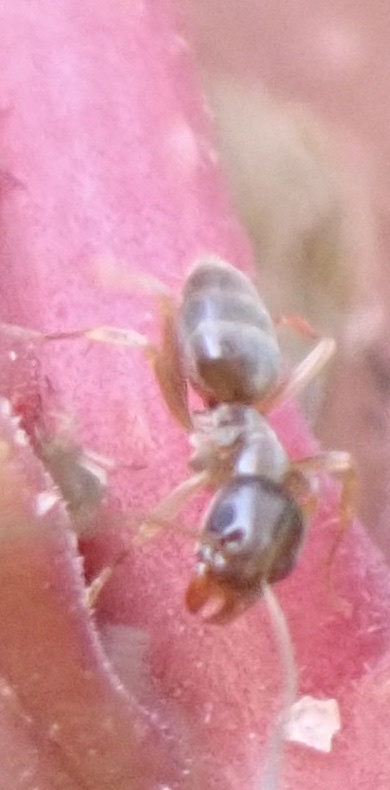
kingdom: Animalia
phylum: Arthropoda
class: Insecta
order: Hymenoptera
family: Formicidae
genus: Linepithema
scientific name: Linepithema humile
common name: Argentine ant
